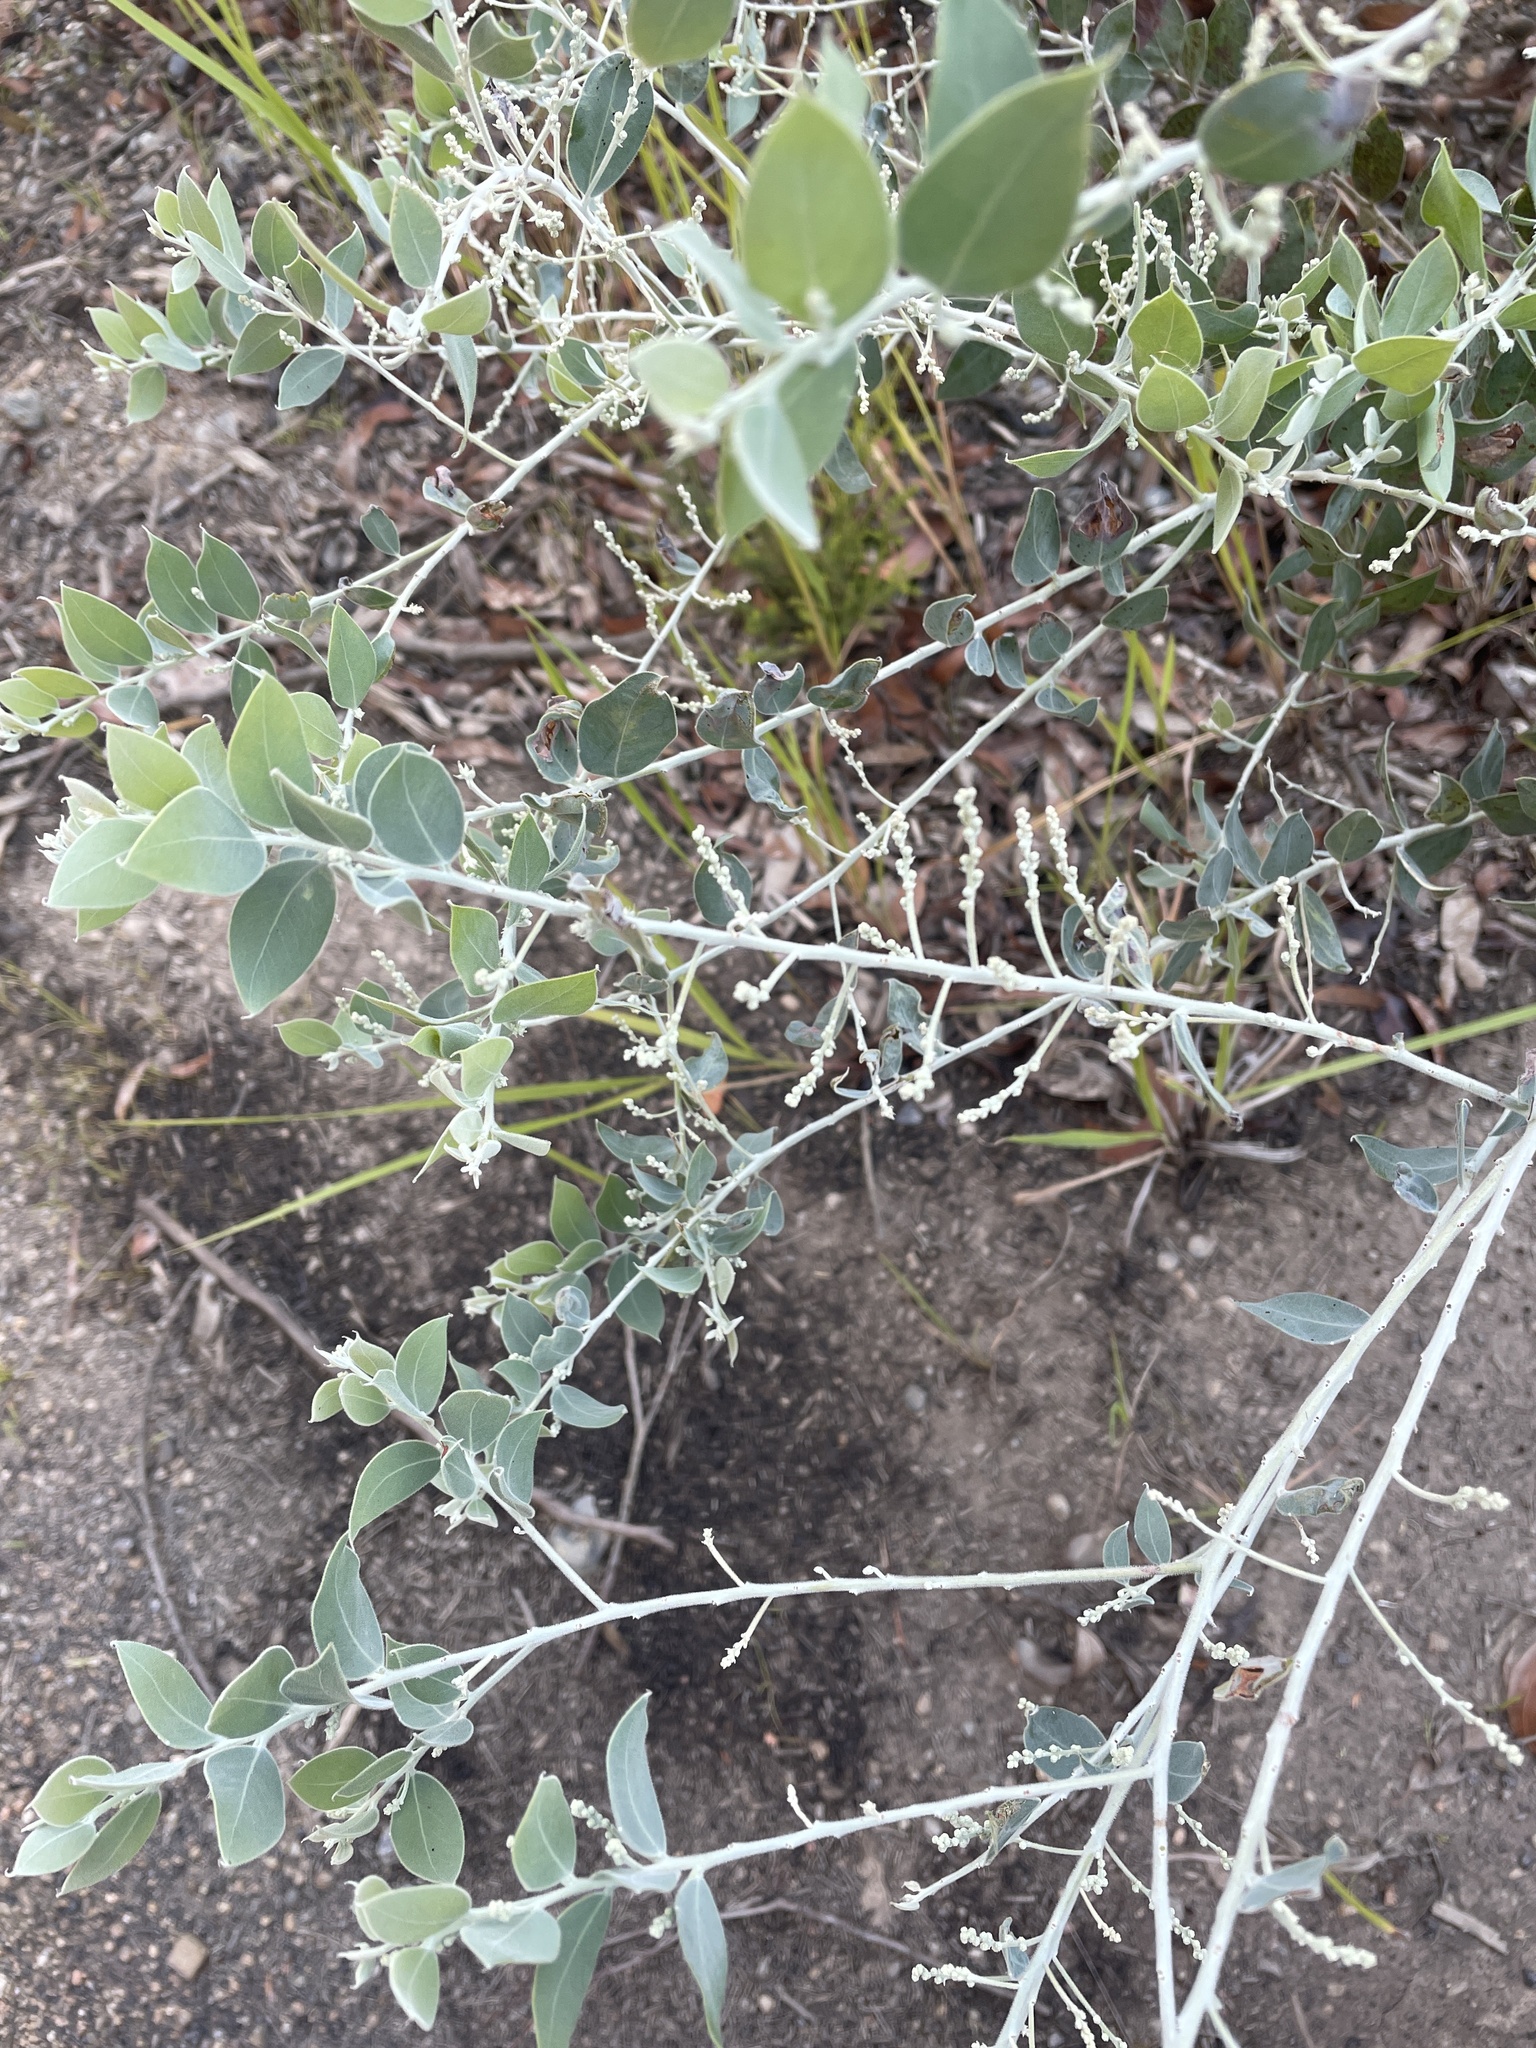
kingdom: Plantae
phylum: Tracheophyta
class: Magnoliopsida
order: Fabales
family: Fabaceae
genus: Acacia
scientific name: Acacia podalyriifolia
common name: Pearl wattle
